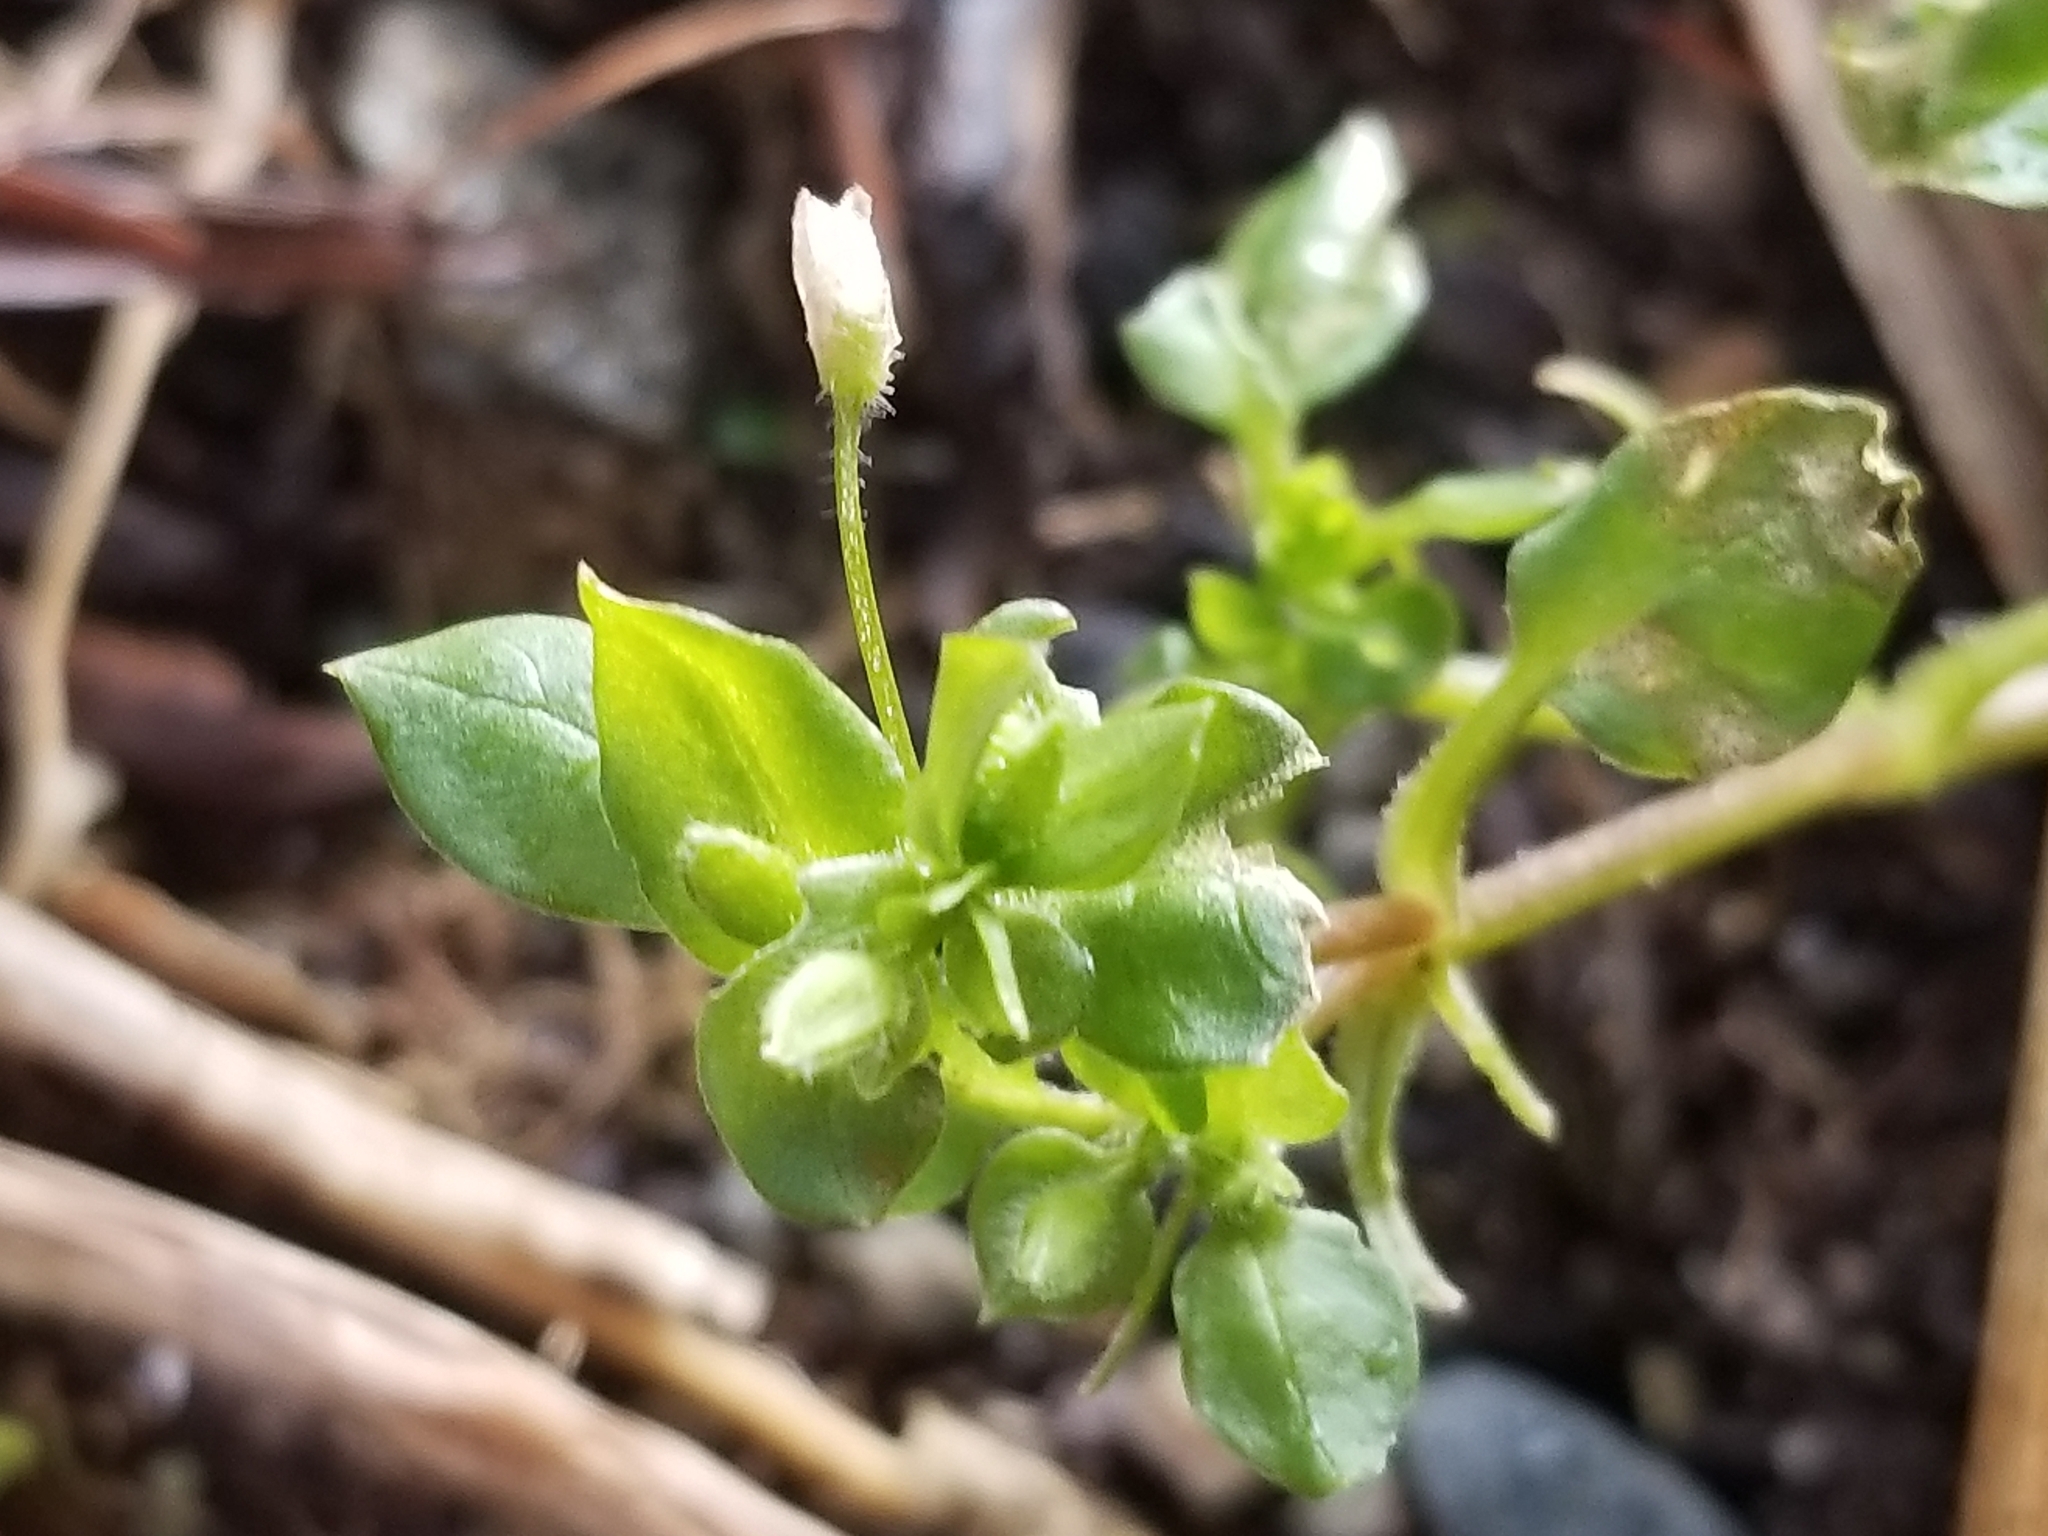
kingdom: Plantae
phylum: Tracheophyta
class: Magnoliopsida
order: Caryophyllales
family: Caryophyllaceae
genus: Stellaria
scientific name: Stellaria media
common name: Common chickweed
